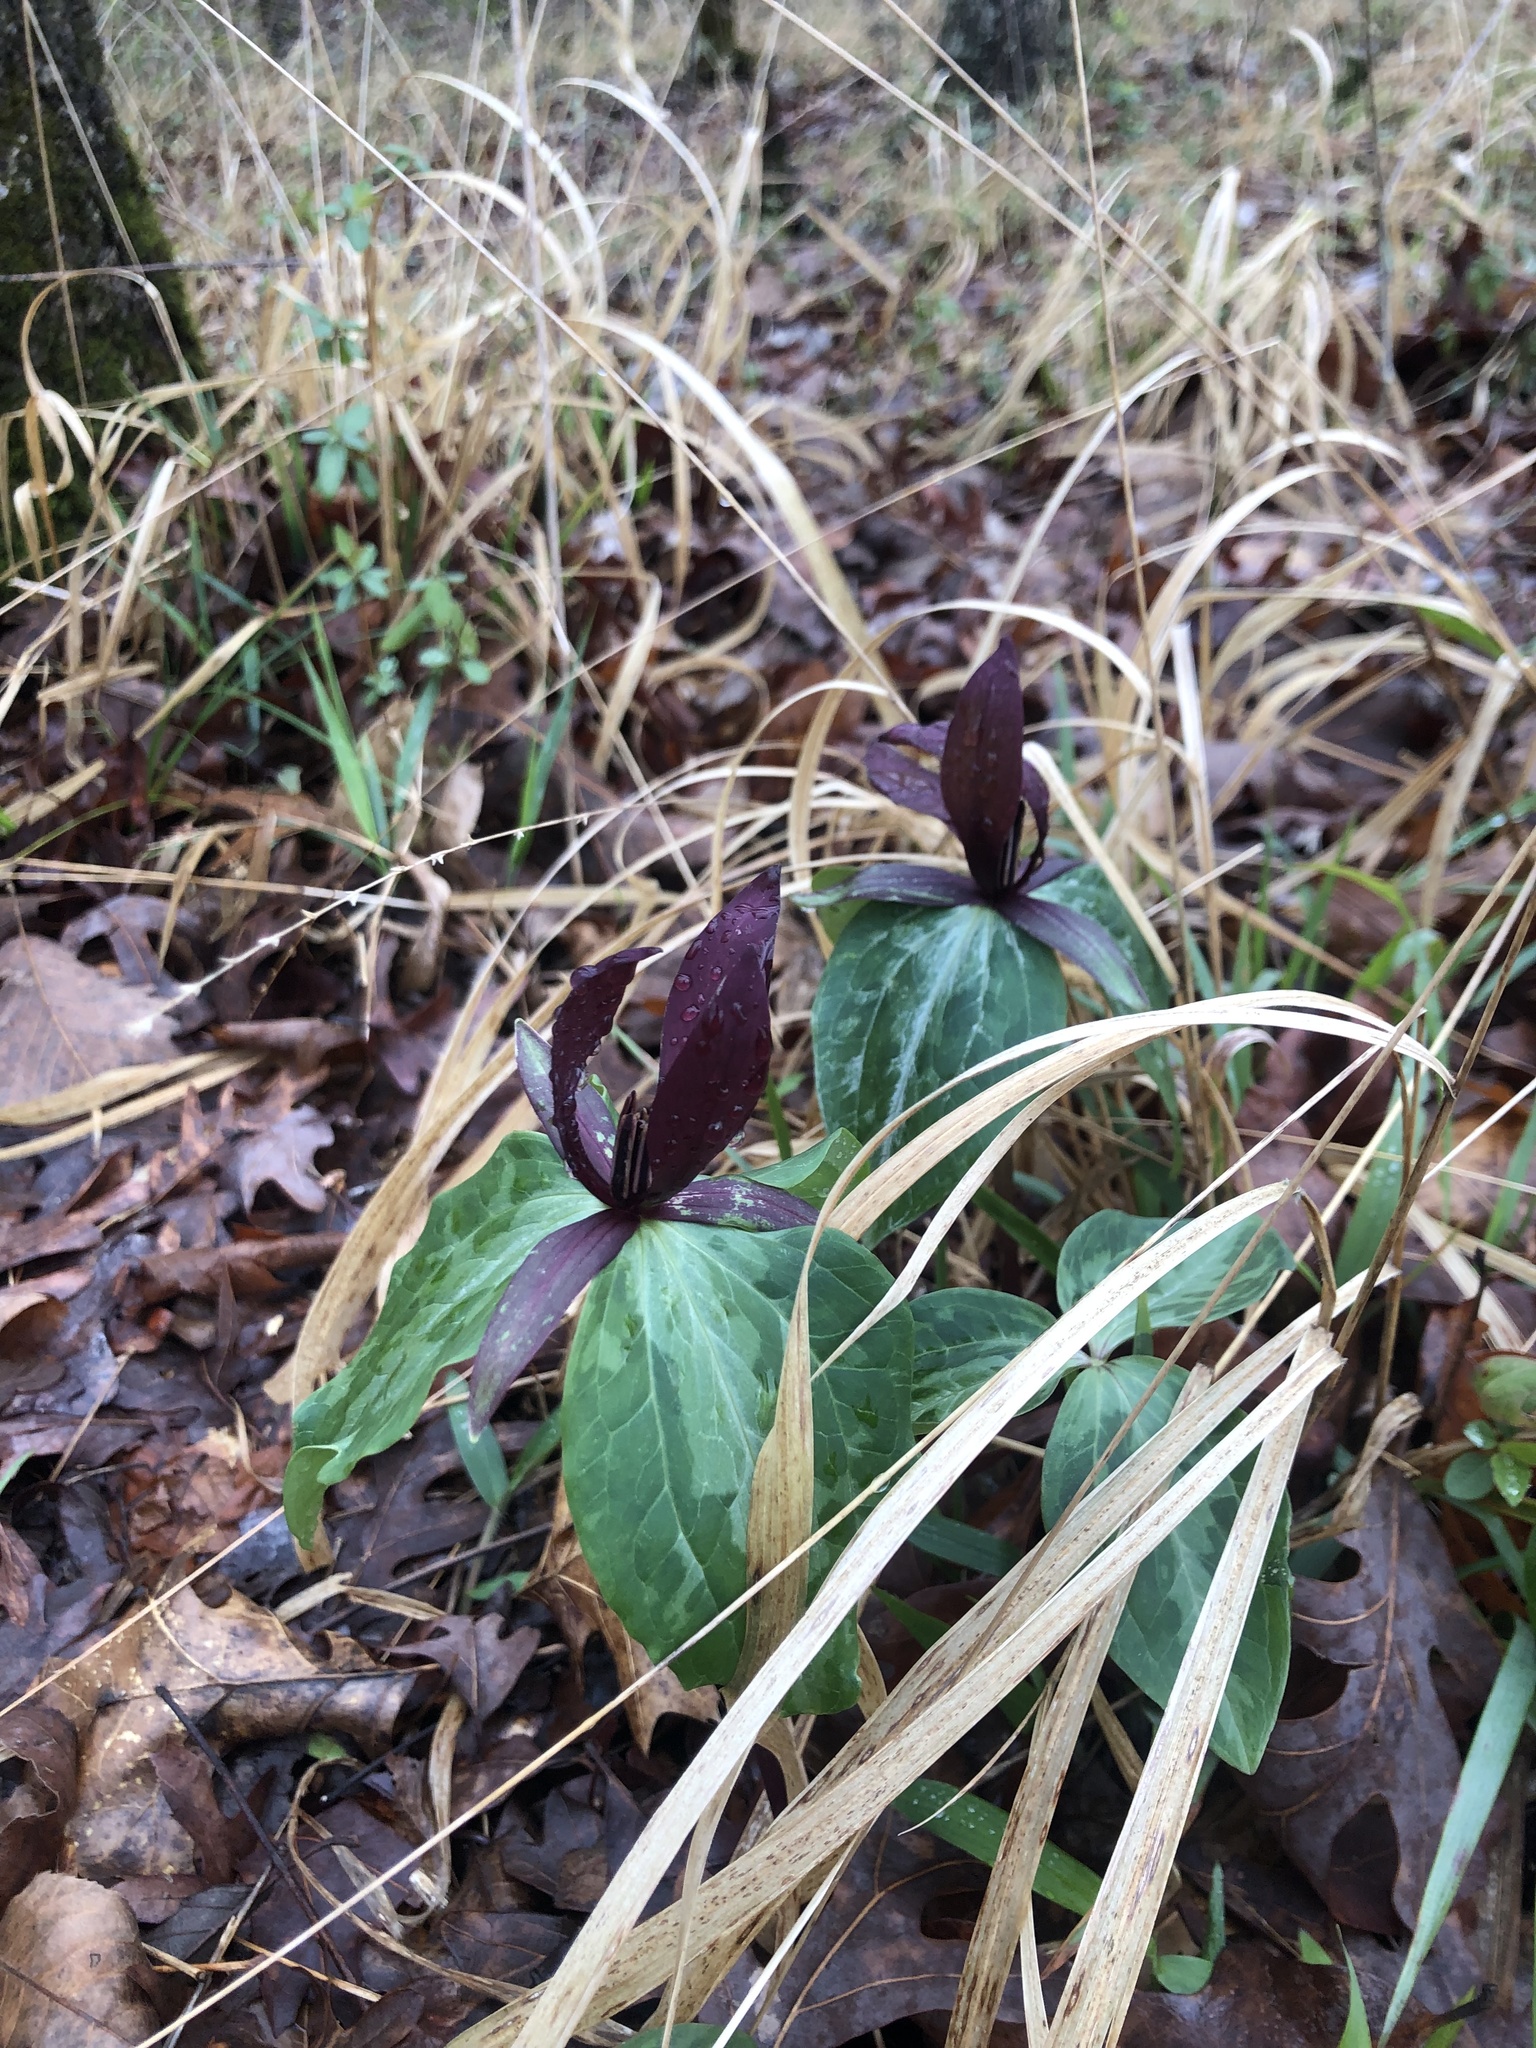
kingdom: Plantae
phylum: Tracheophyta
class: Liliopsida
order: Liliales
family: Melanthiaceae
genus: Trillium
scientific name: Trillium cuneatum
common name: Cuneate trillium
